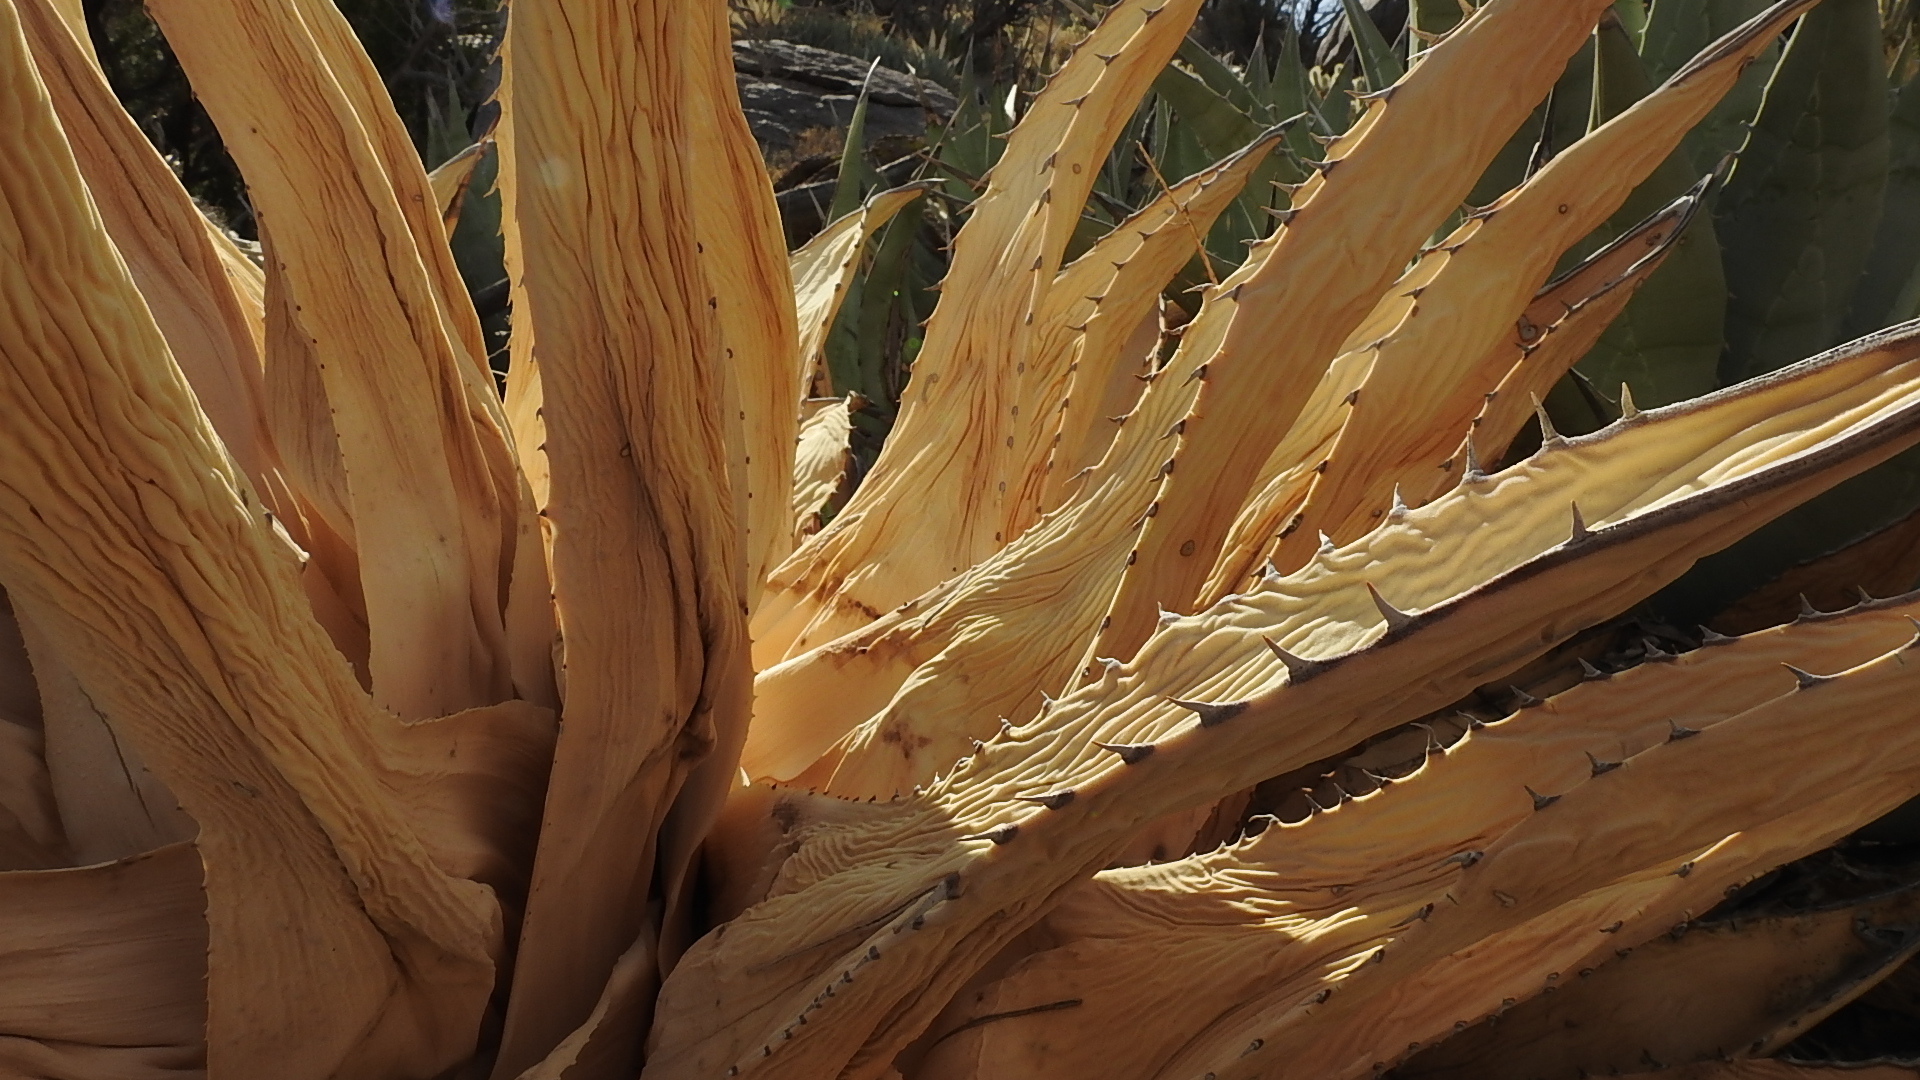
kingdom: Plantae
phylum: Tracheophyta
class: Liliopsida
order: Asparagales
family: Asparagaceae
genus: Agave
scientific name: Agave deserti
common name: Desert agave
